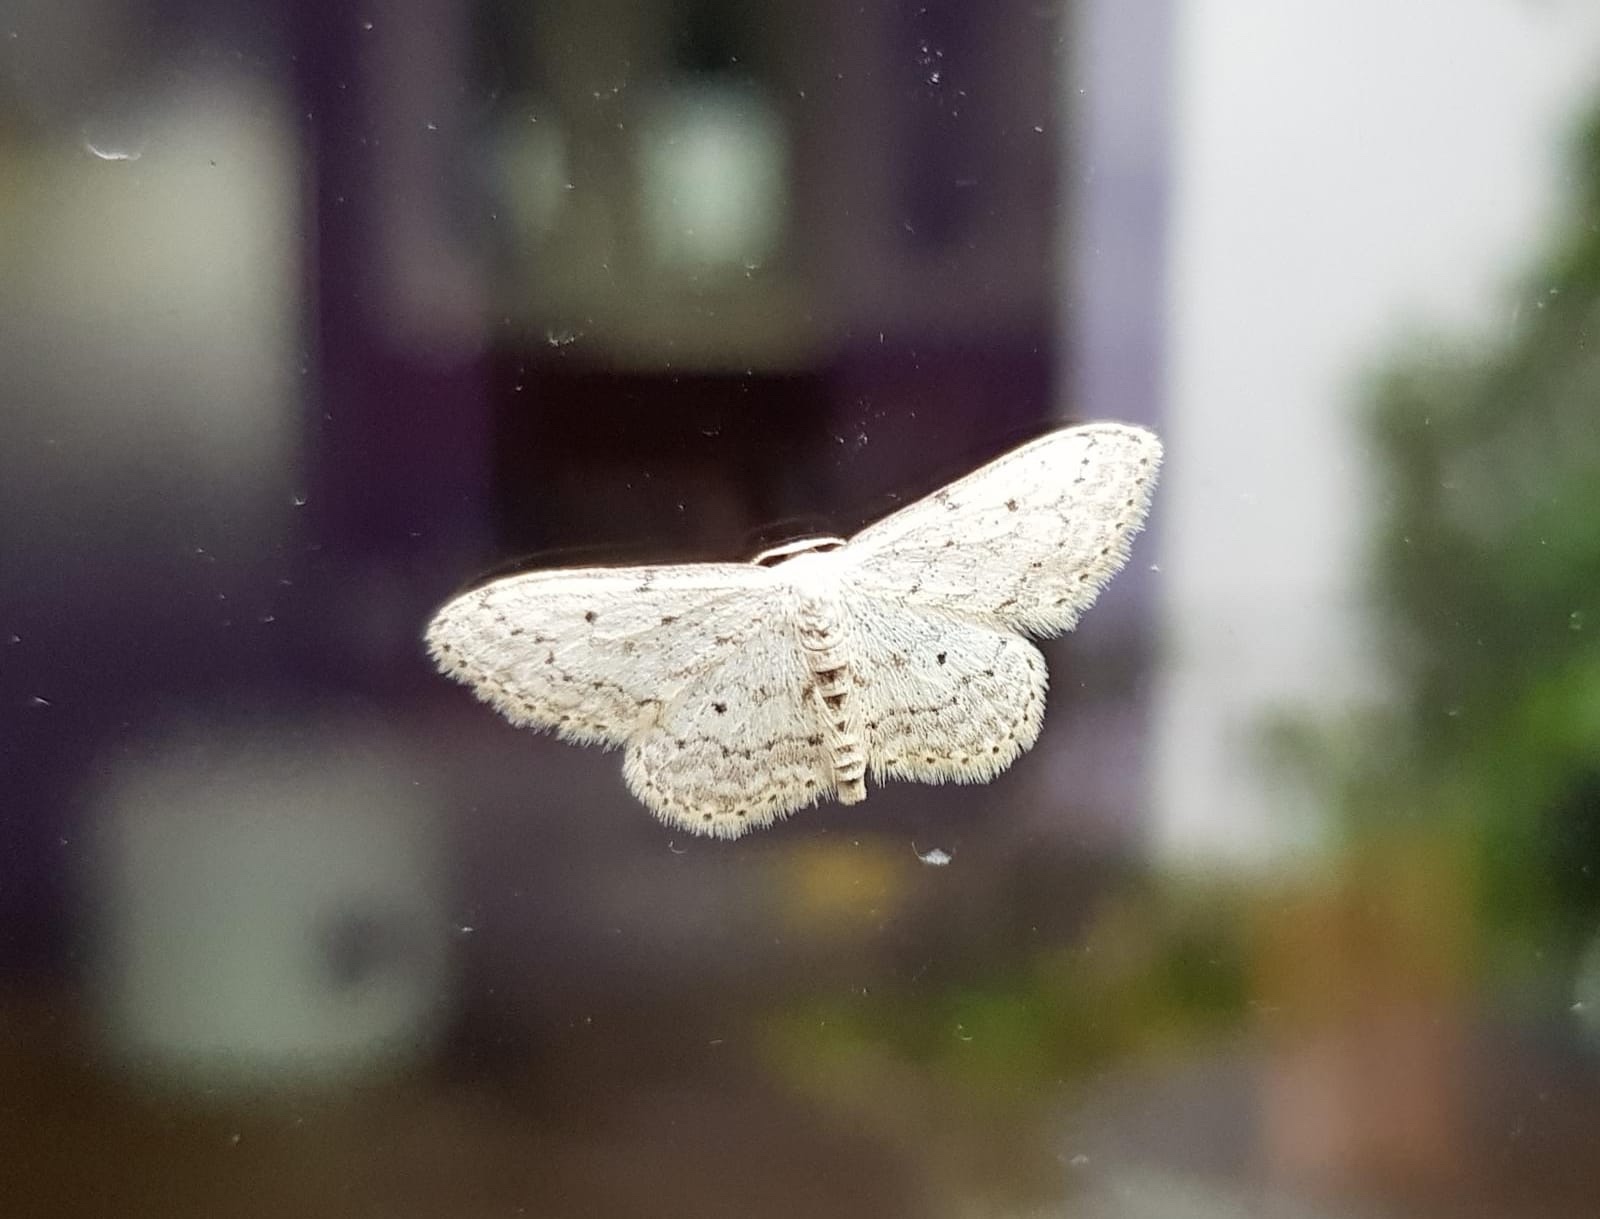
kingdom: Animalia
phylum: Arthropoda
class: Insecta
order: Lepidoptera
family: Geometridae
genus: Idaea
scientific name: Idaea seriata
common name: Small dusty wave
